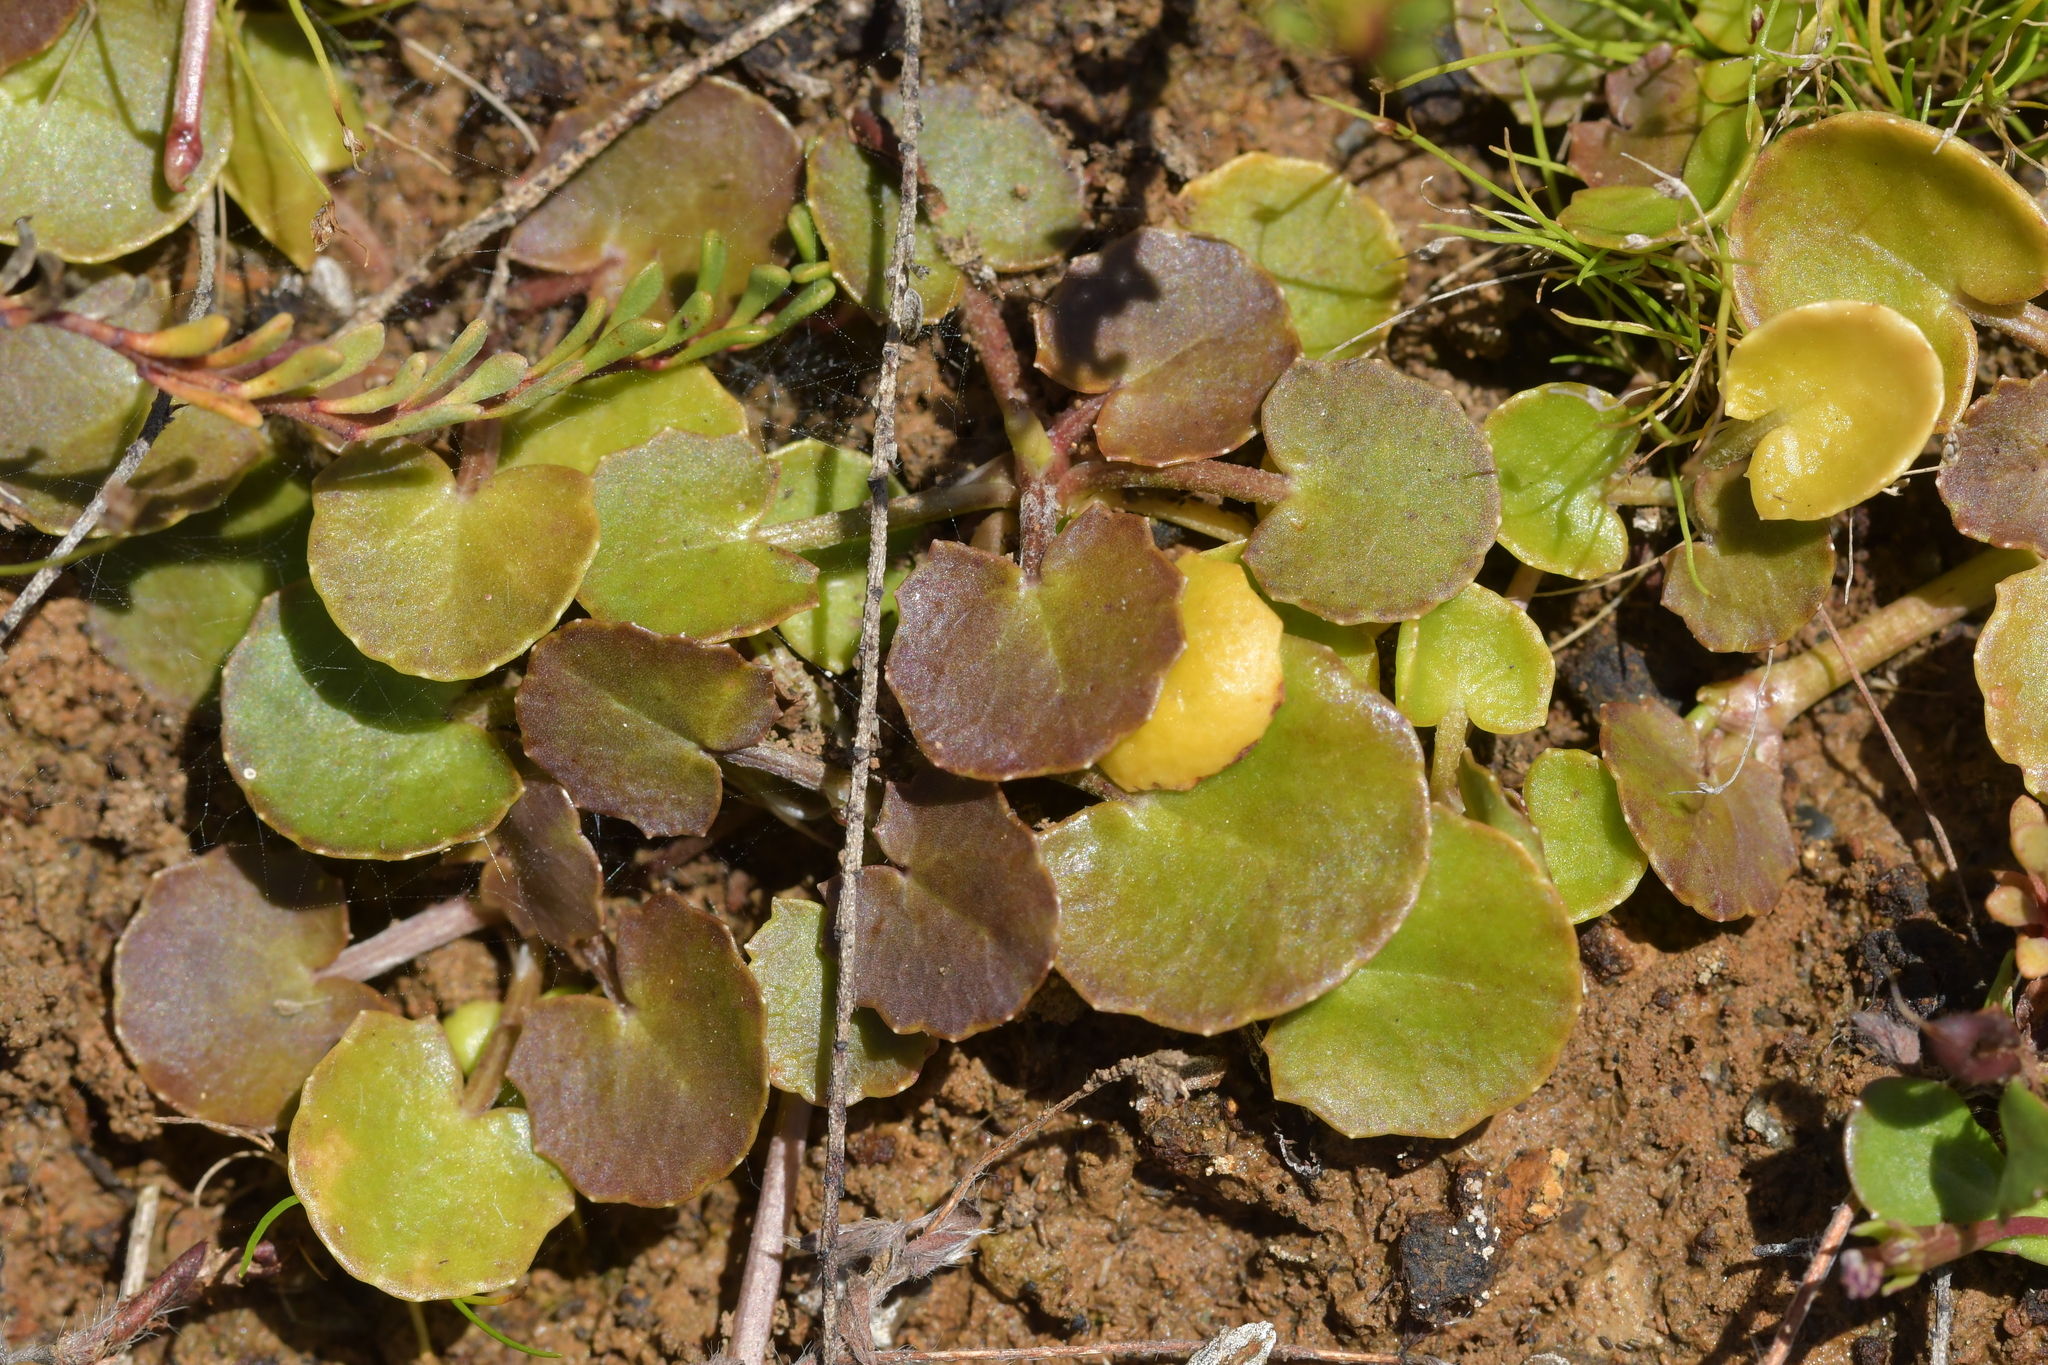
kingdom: Plantae
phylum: Tracheophyta
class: Magnoliopsida
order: Apiales
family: Apiaceae
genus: Centella
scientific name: Centella uniflora
